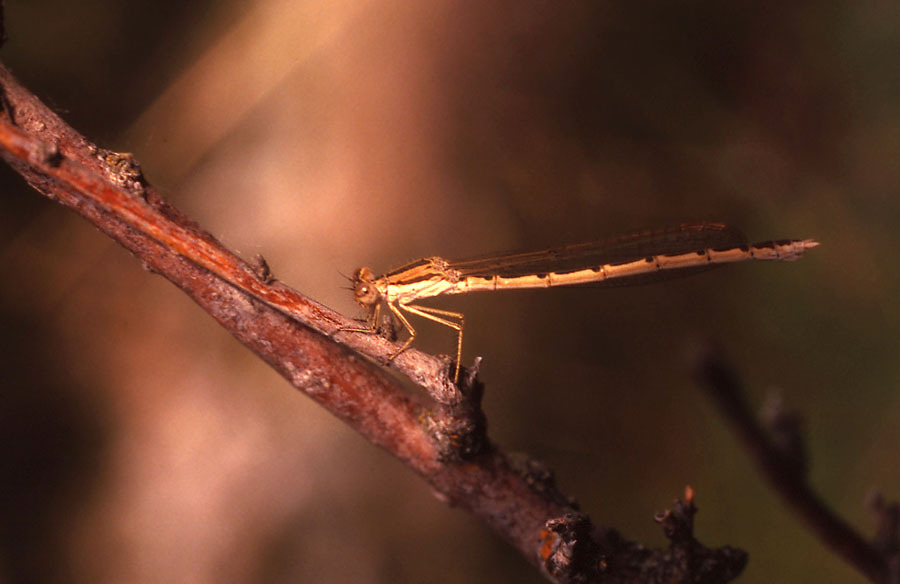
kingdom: Animalia
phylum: Arthropoda
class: Insecta
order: Odonata
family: Lestidae
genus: Sympecma
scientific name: Sympecma fusca
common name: Common winter damsel
